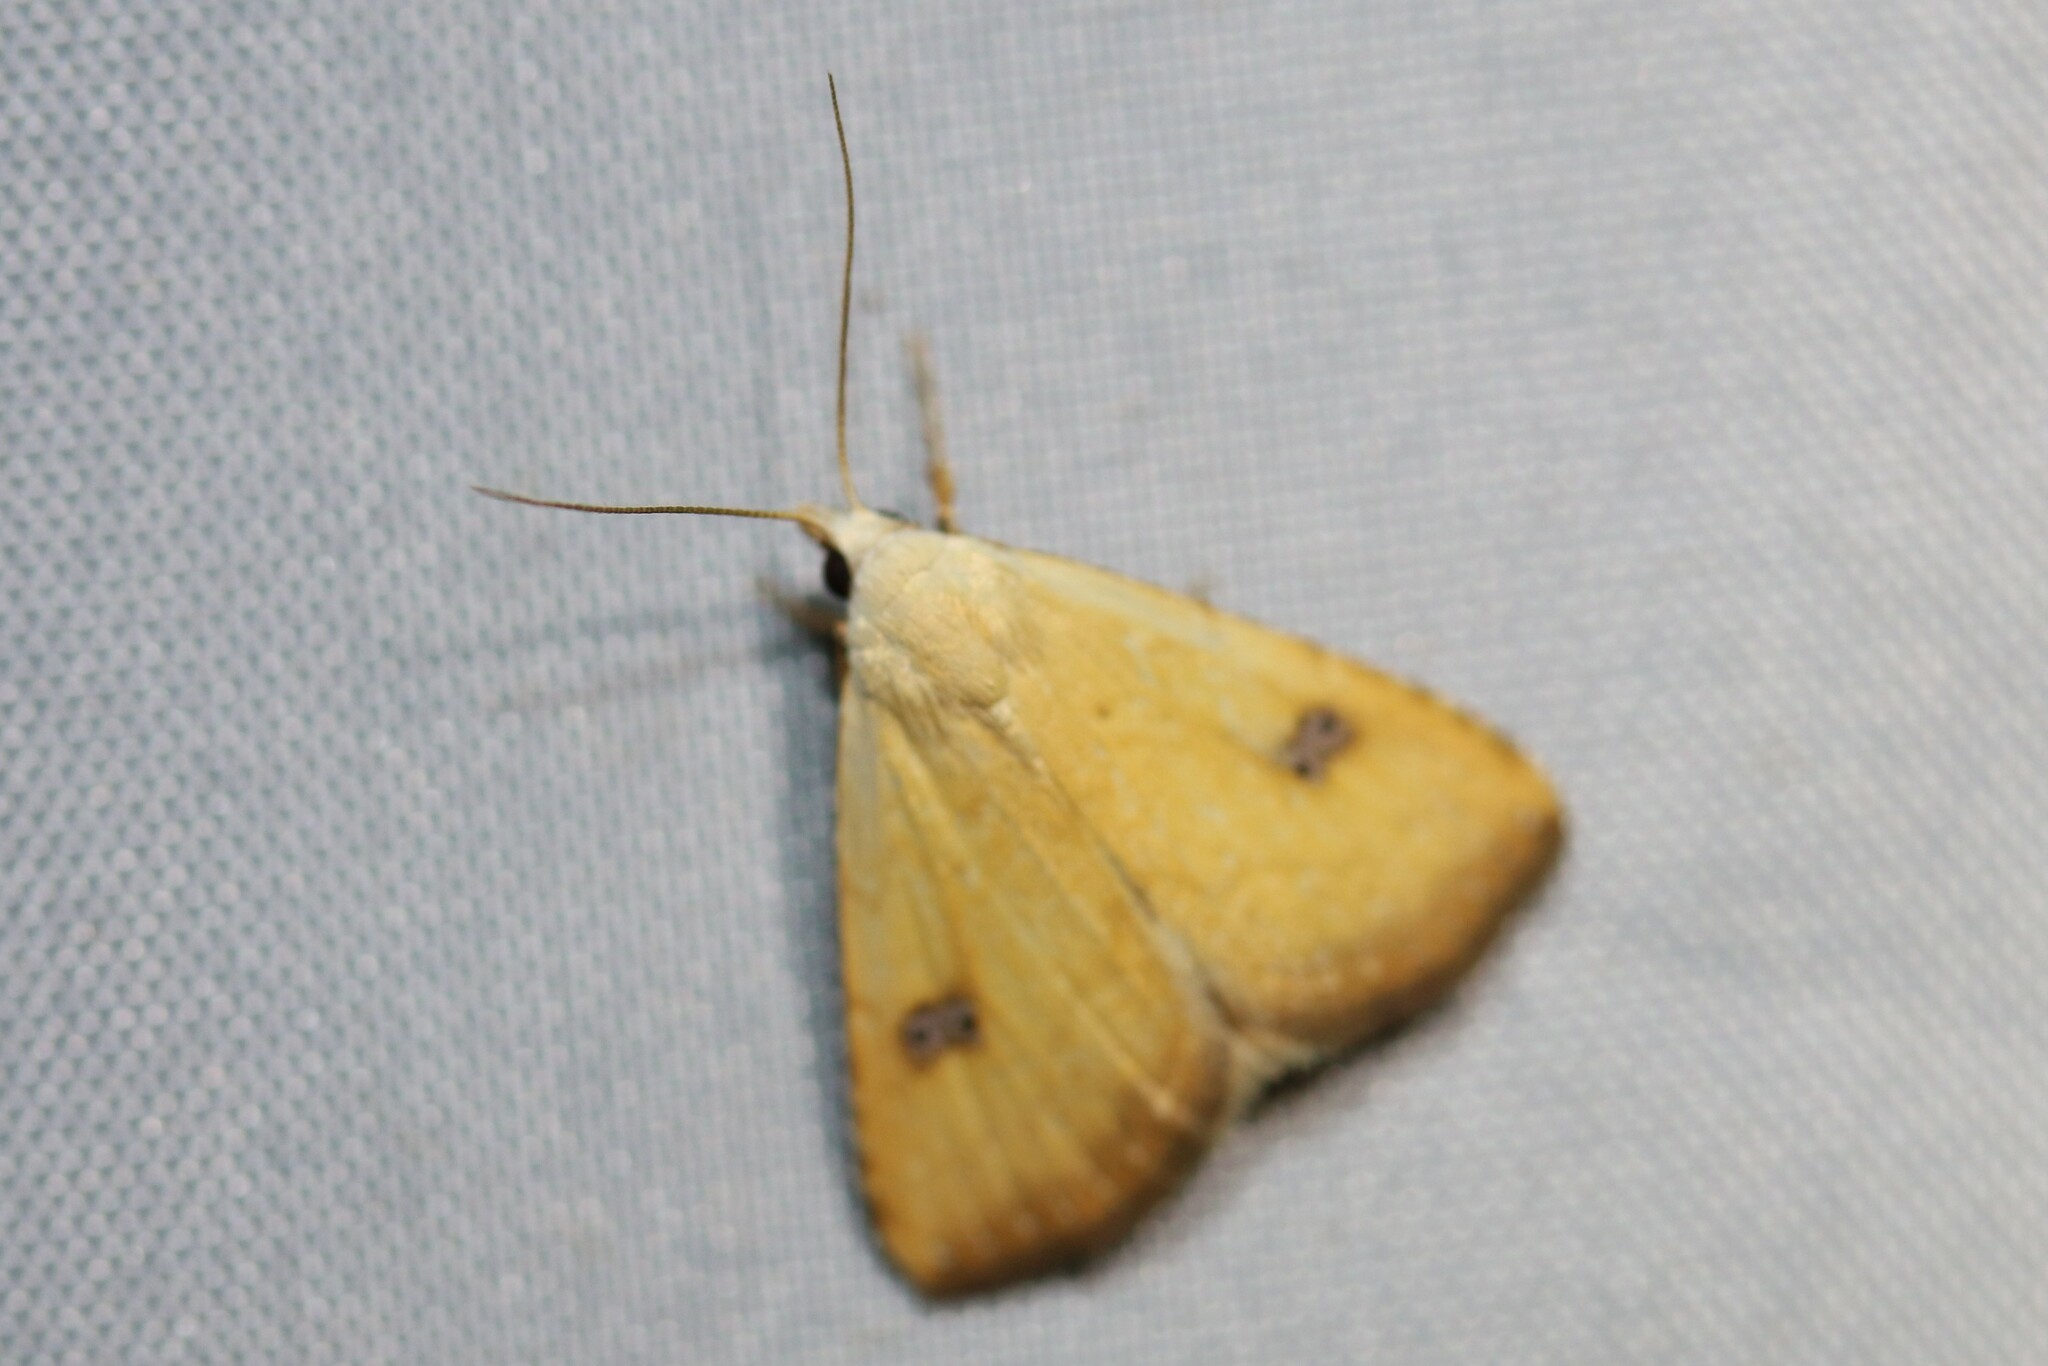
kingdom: Animalia
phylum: Arthropoda
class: Insecta
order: Lepidoptera
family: Erebidae
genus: Rivula
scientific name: Rivula sericealis
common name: Straw dot
